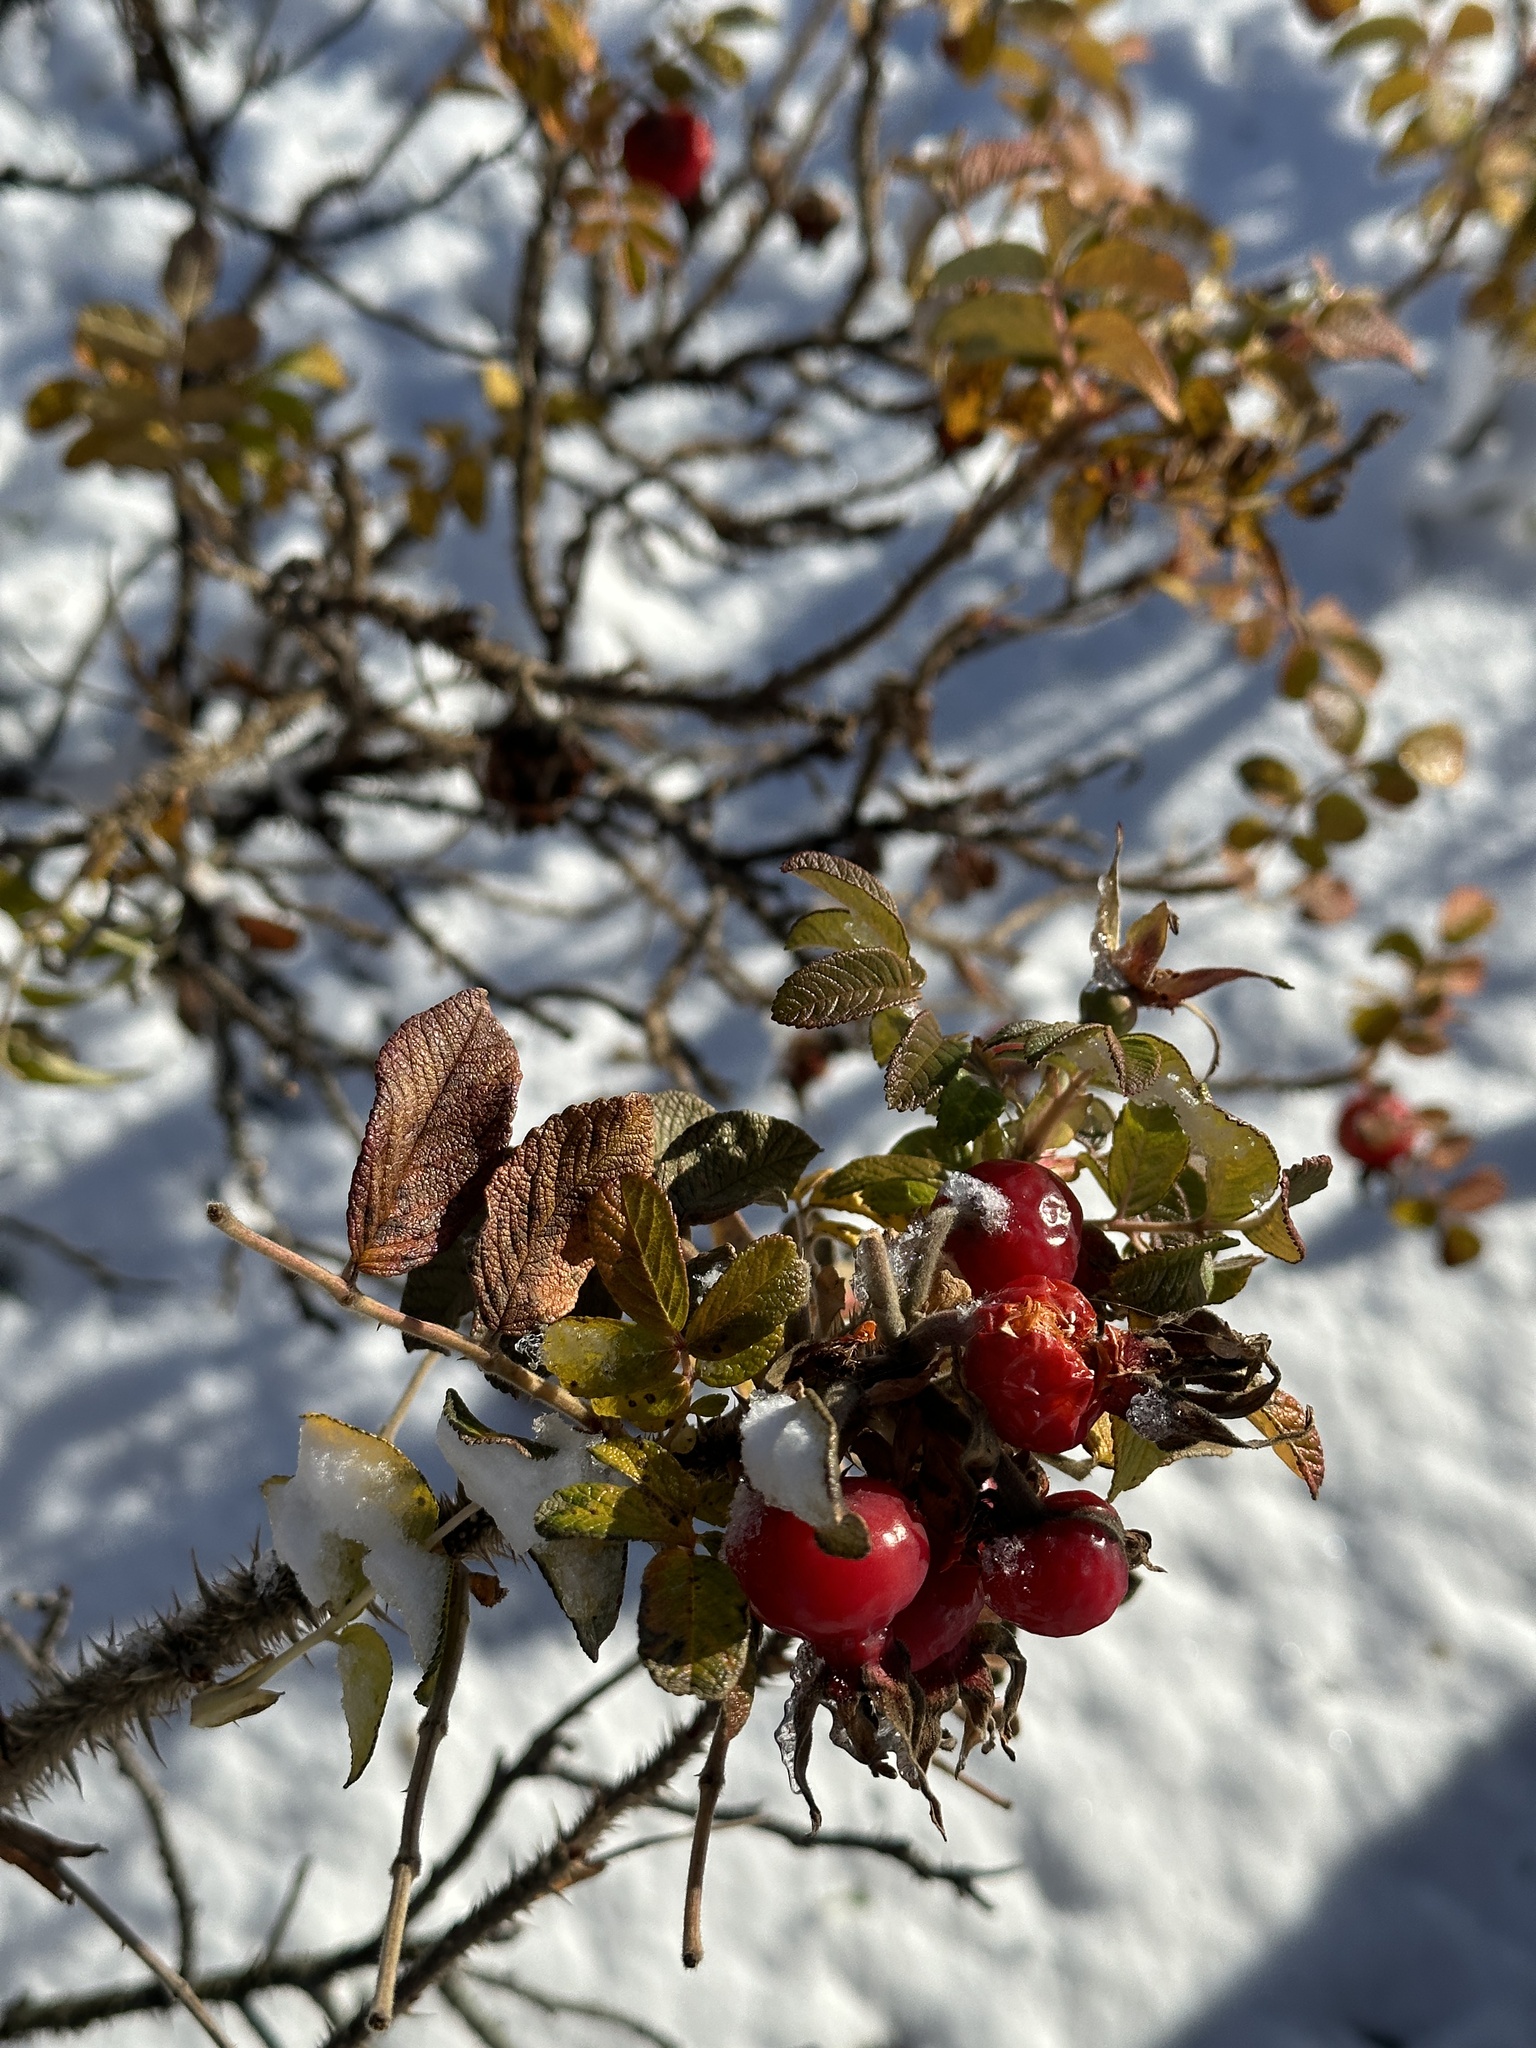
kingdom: Plantae
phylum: Tracheophyta
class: Magnoliopsida
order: Rosales
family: Rosaceae
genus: Rosa
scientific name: Rosa rugosa
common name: Japanese rose
